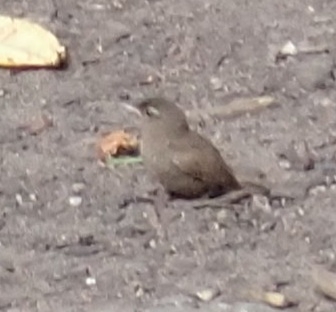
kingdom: Animalia
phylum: Chordata
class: Aves
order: Passeriformes
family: Troglodytidae
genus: Troglodytes
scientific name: Troglodytes troglodytes
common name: Eurasian wren
